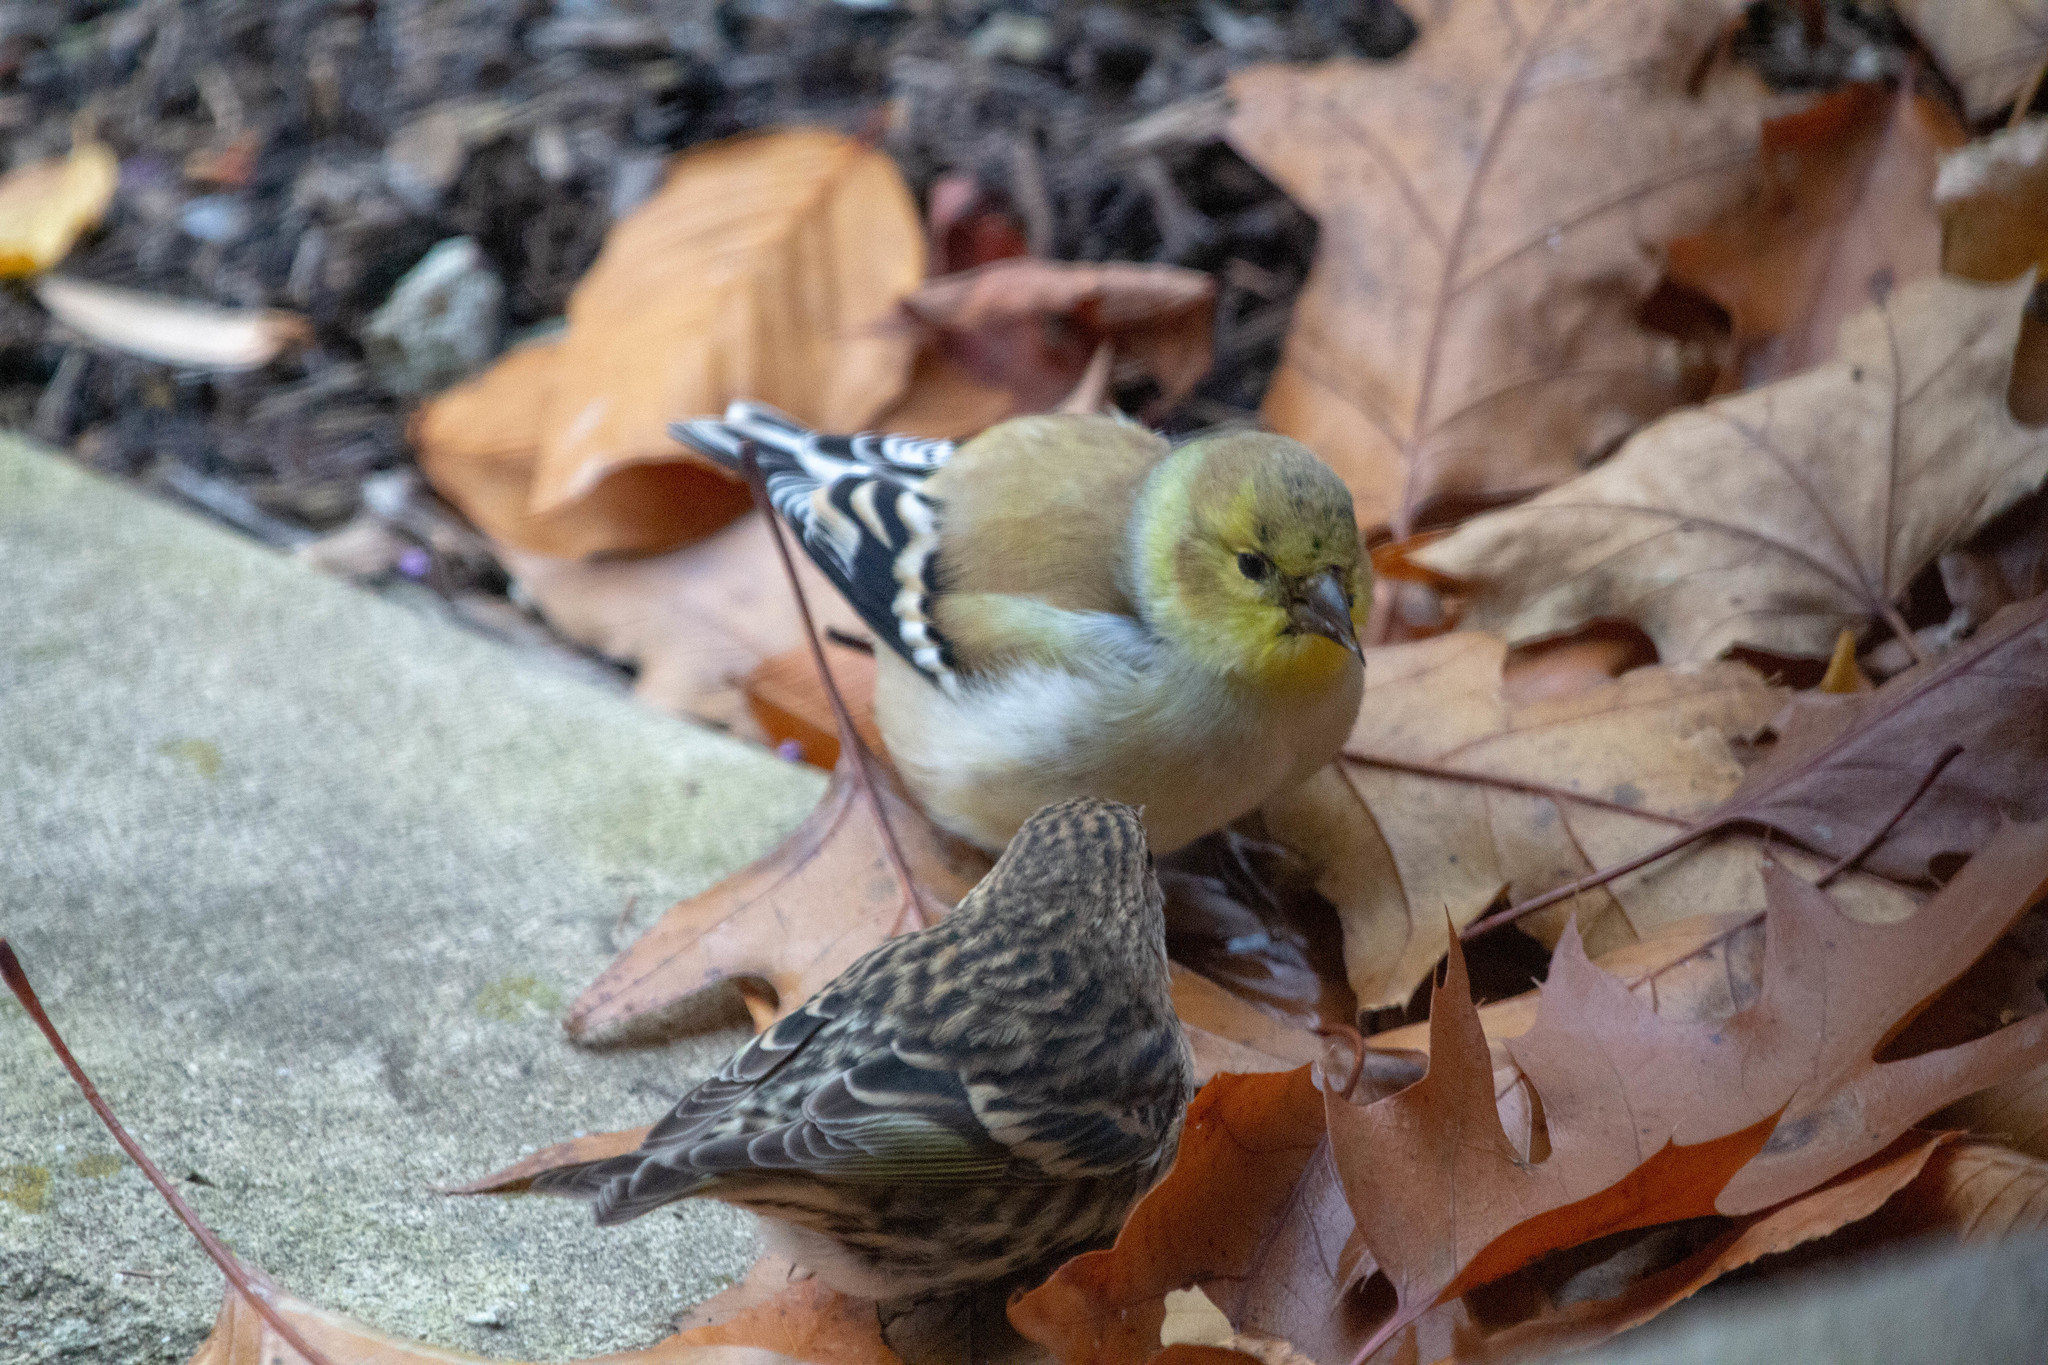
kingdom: Animalia
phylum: Chordata
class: Aves
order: Passeriformes
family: Fringillidae
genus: Spinus
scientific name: Spinus tristis
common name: American goldfinch
